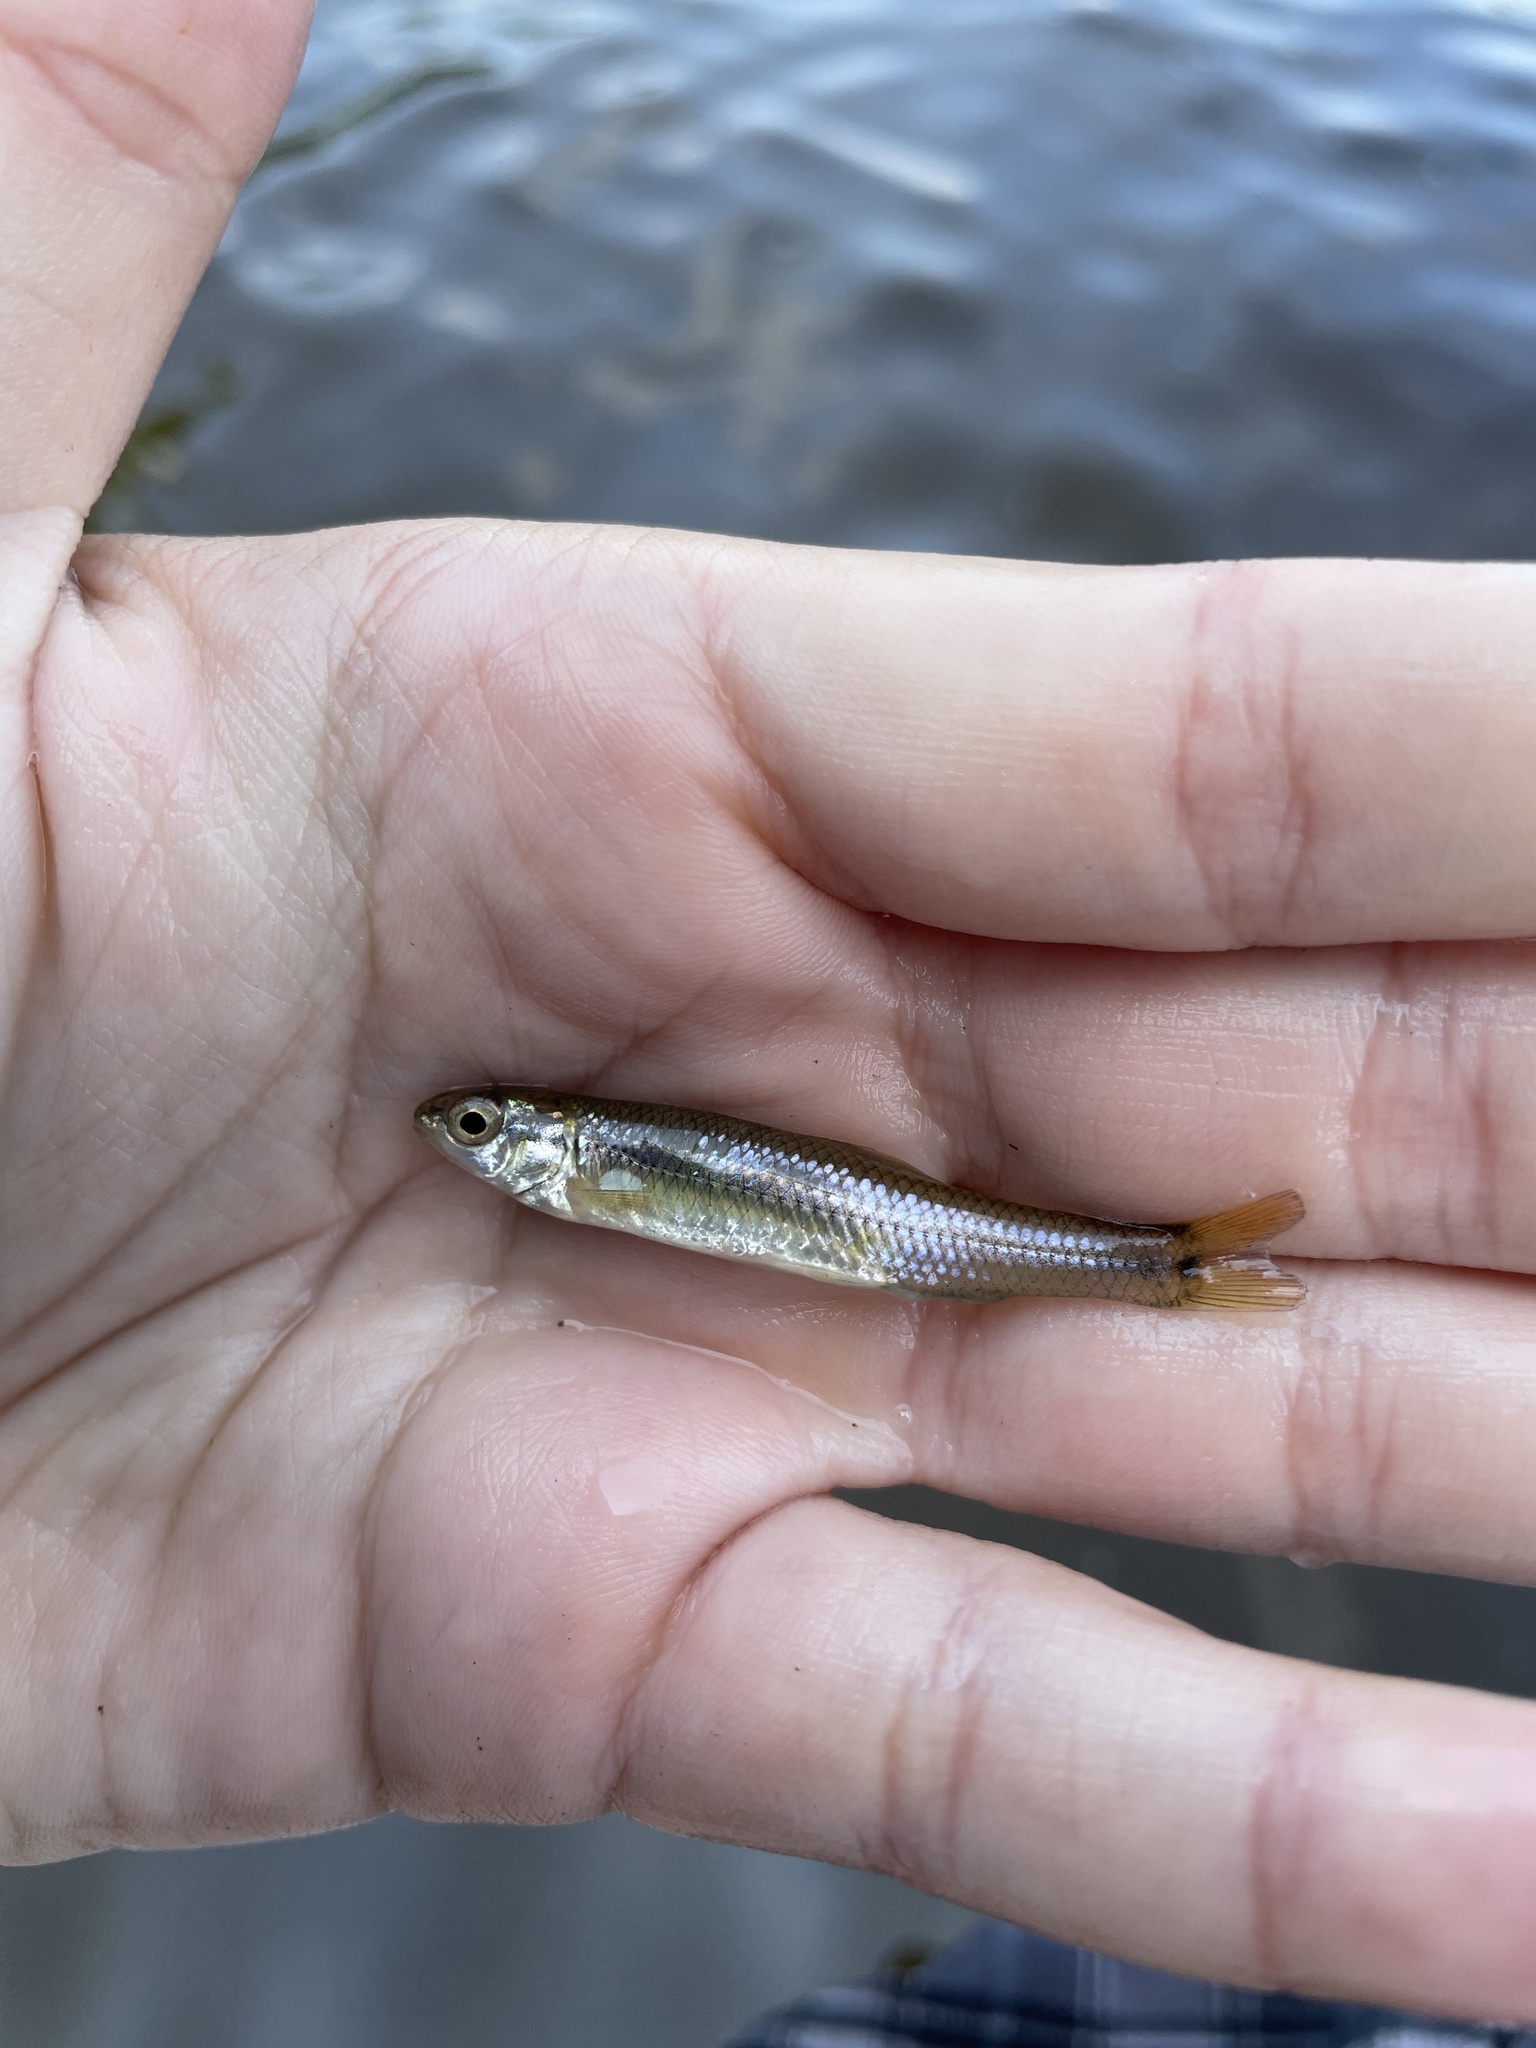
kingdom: Animalia
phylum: Chordata
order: Cypriniformes
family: Cyprinidae
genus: Pimephales
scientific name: Pimephales notatus
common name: Bluntnose minnow
